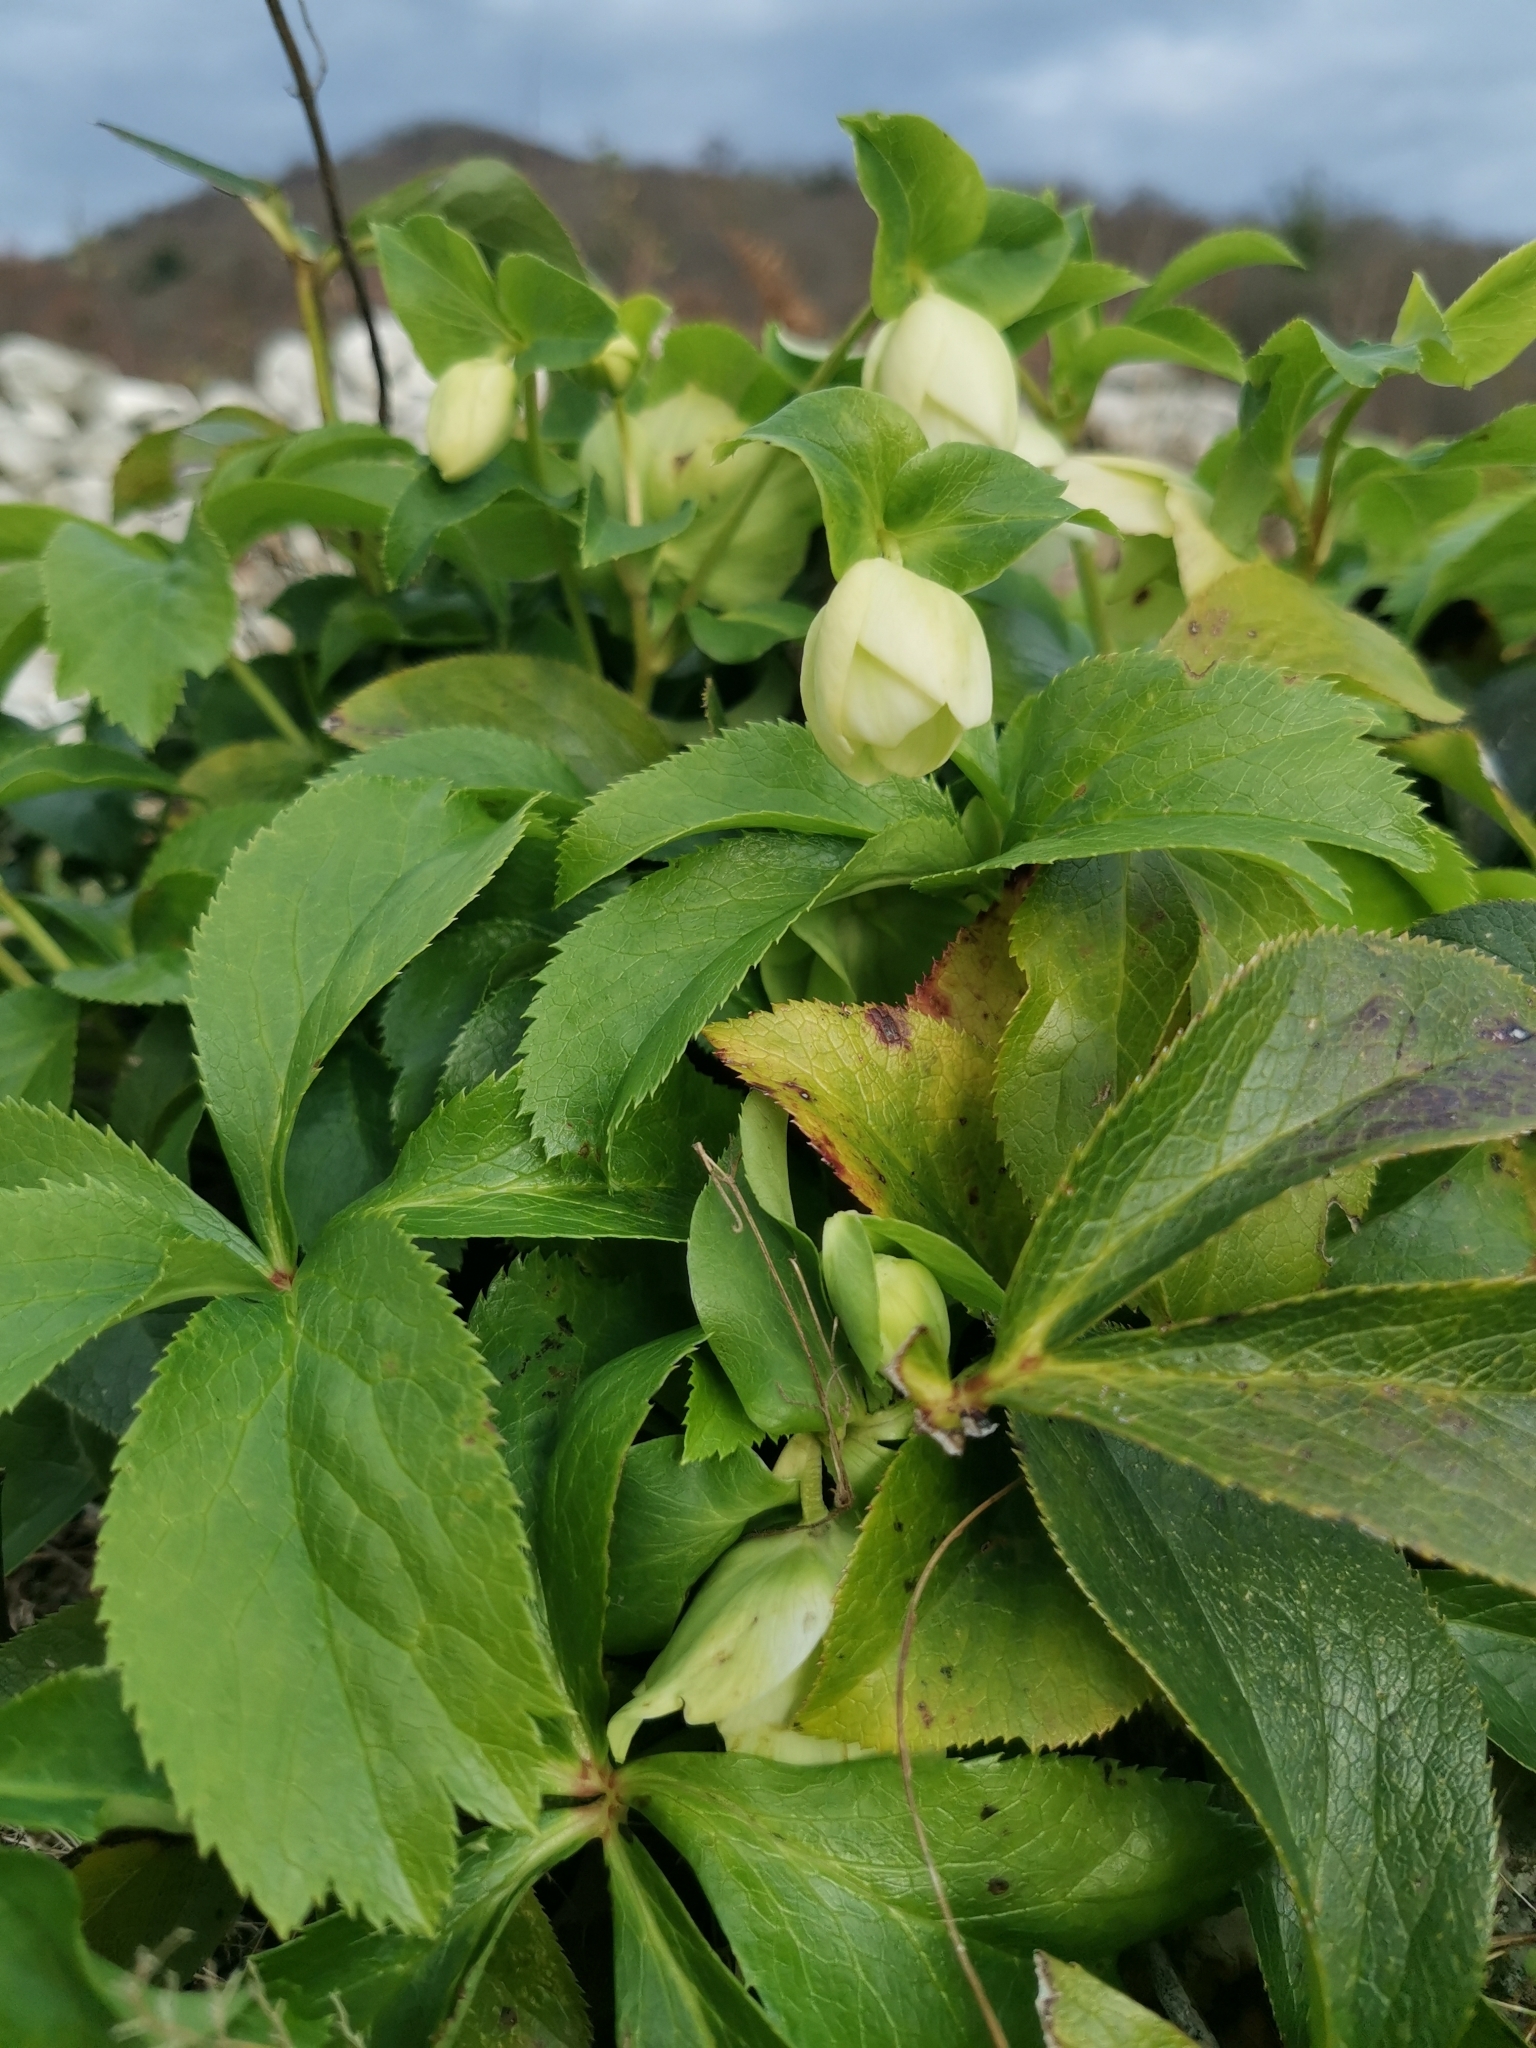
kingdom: Plantae
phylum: Tracheophyta
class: Magnoliopsida
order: Ranunculales
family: Ranunculaceae
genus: Helleborus
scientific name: Helleborus orientalis
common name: Lenten-rose
